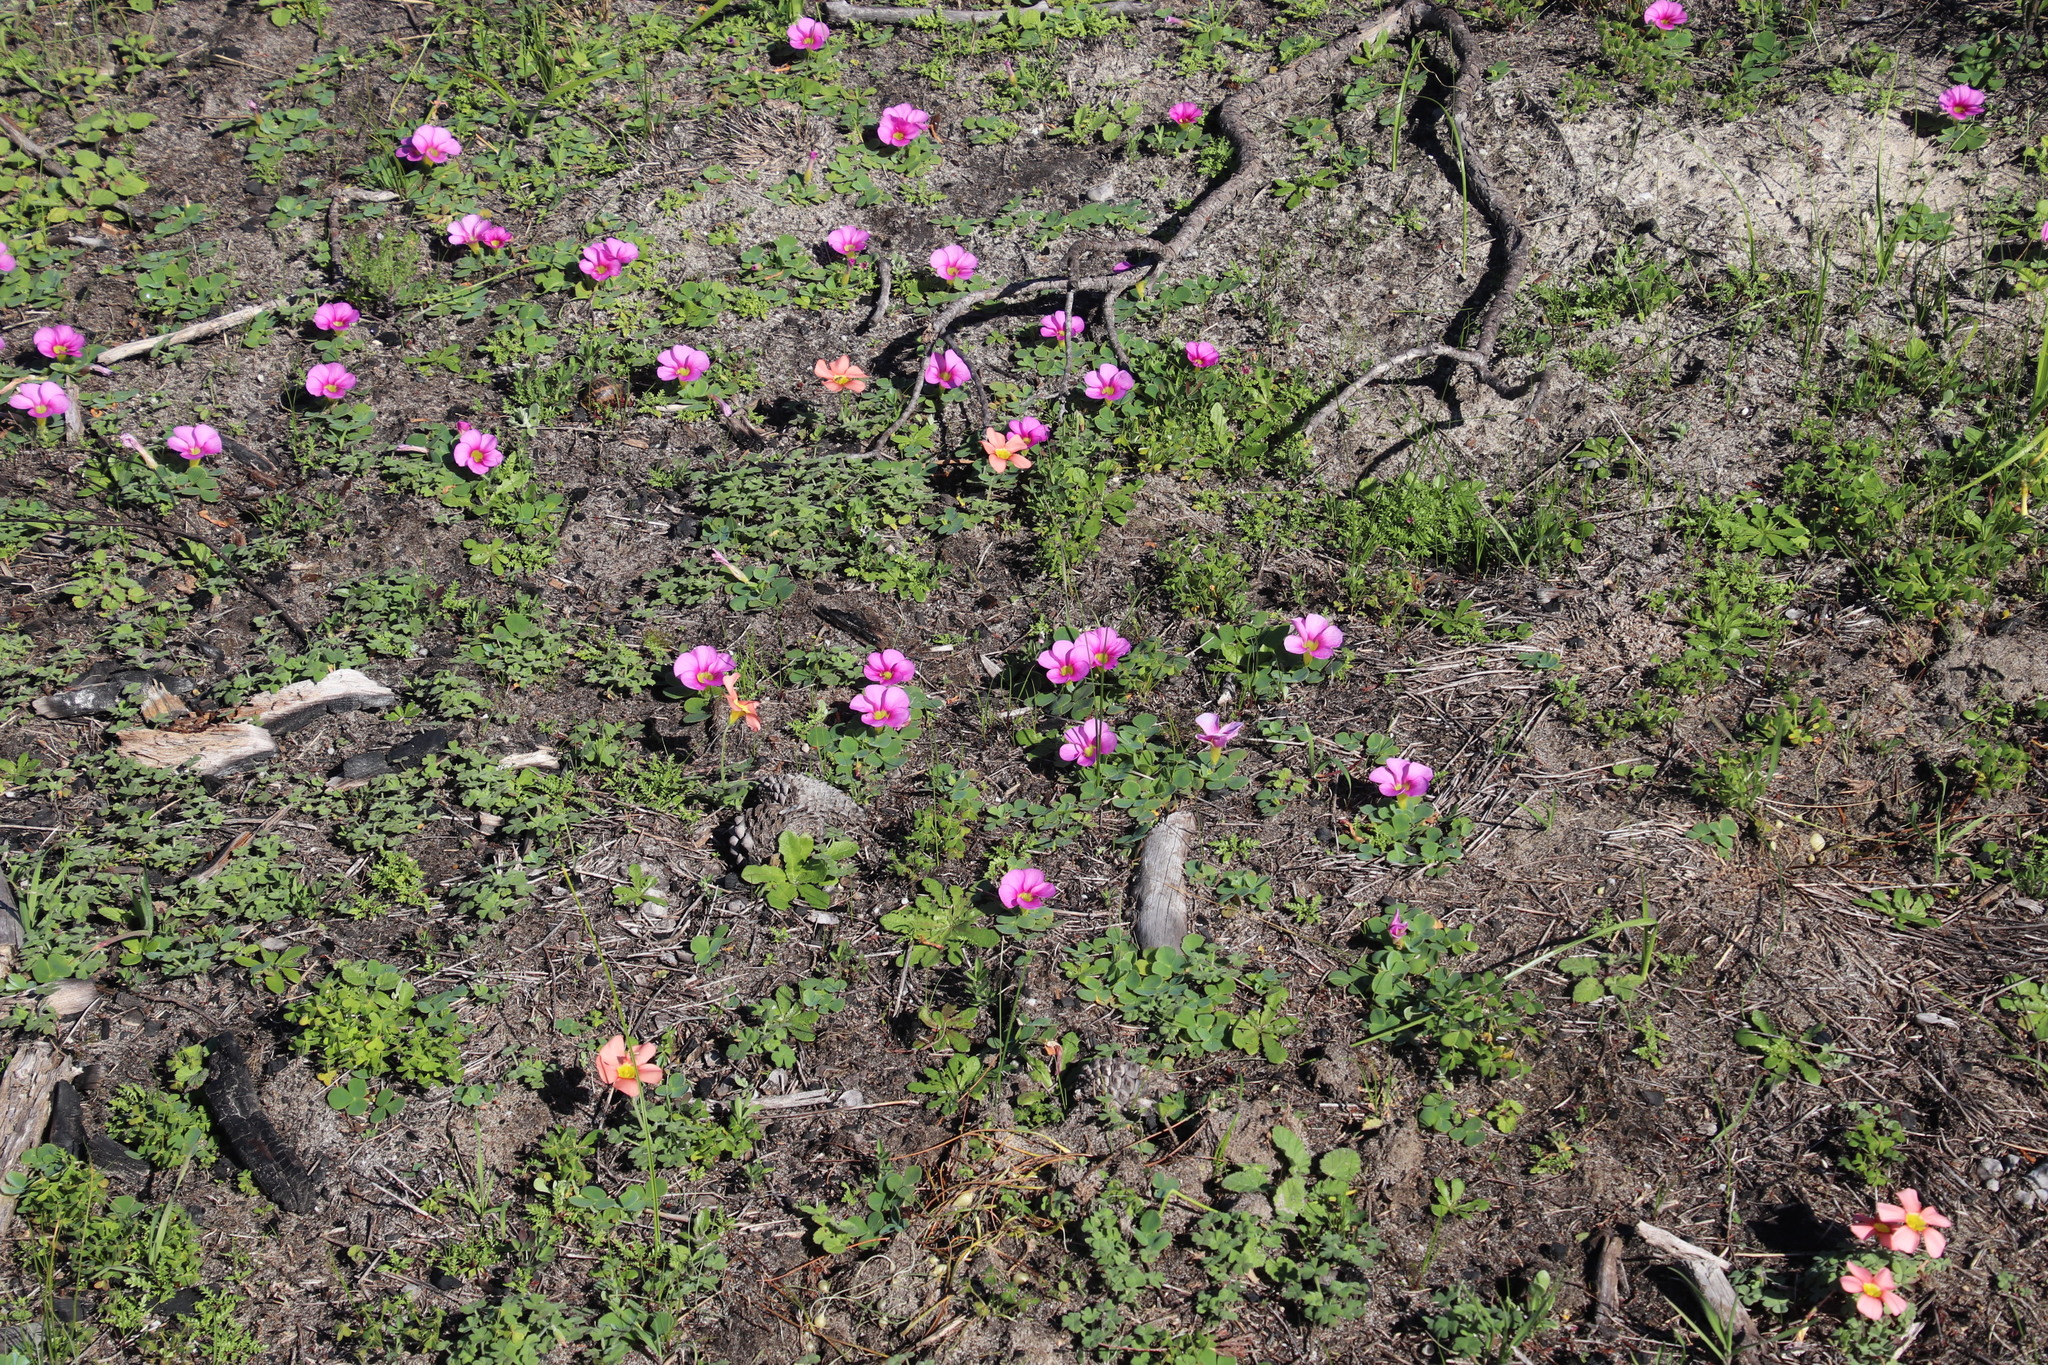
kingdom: Plantae
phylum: Tracheophyta
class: Magnoliopsida
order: Oxalidales
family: Oxalidaceae
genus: Oxalis
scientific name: Oxalis purpurea
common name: Purple woodsorrel
